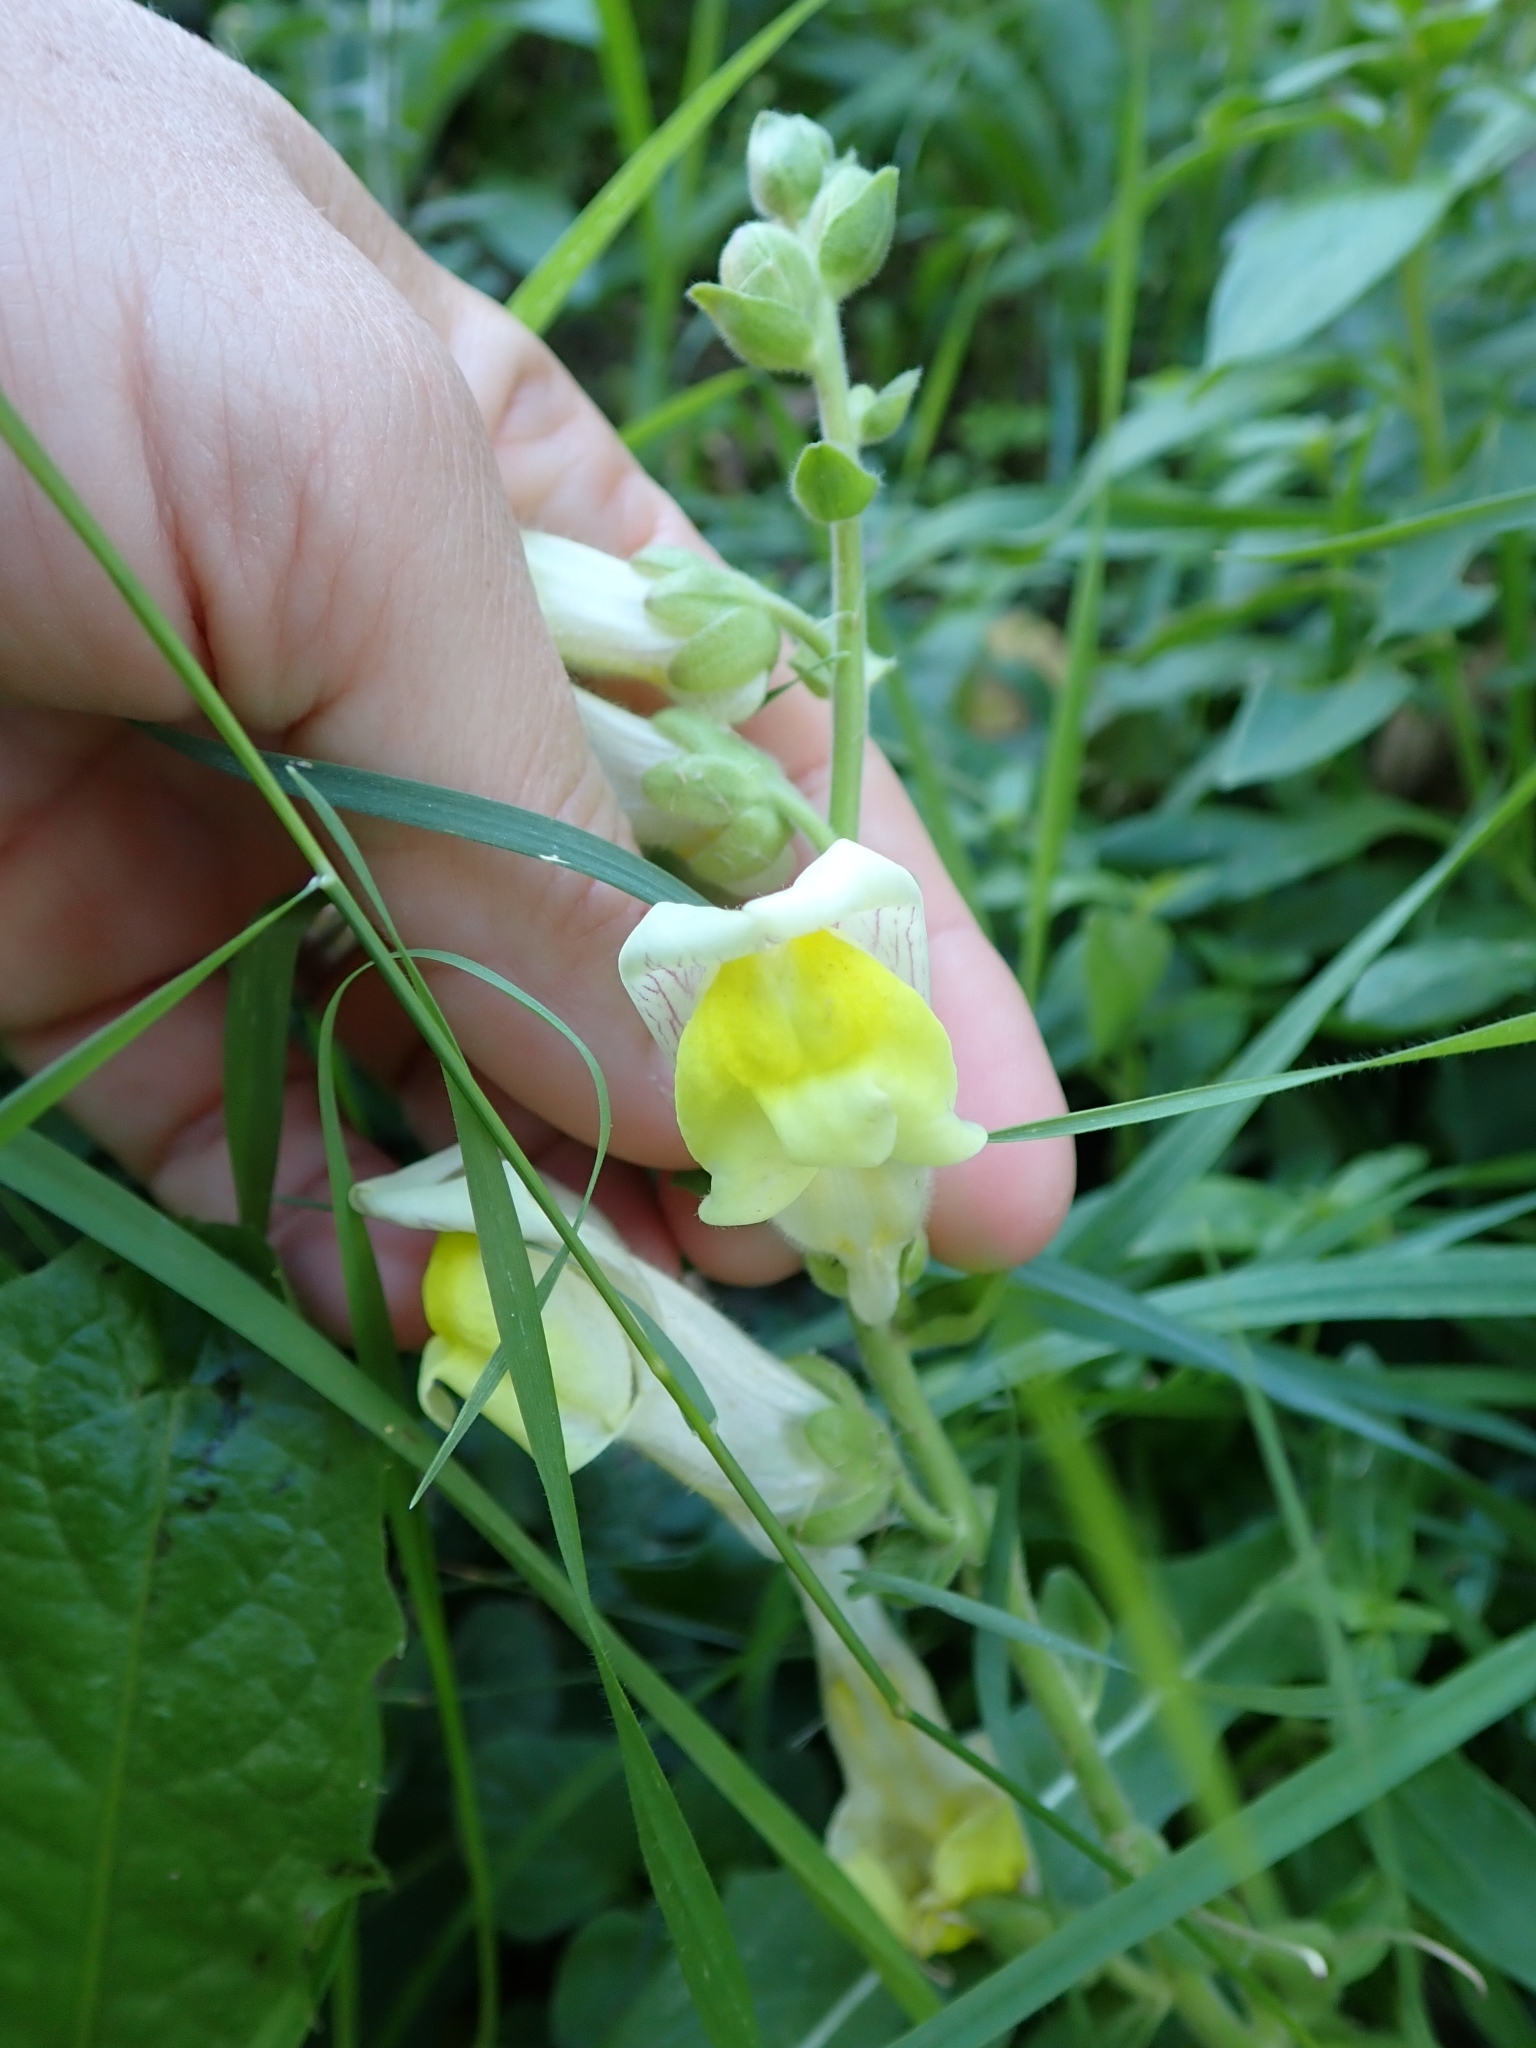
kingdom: Plantae
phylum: Tracheophyta
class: Magnoliopsida
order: Lamiales
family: Plantaginaceae
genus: Antirrhinum
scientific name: Antirrhinum latifolium
